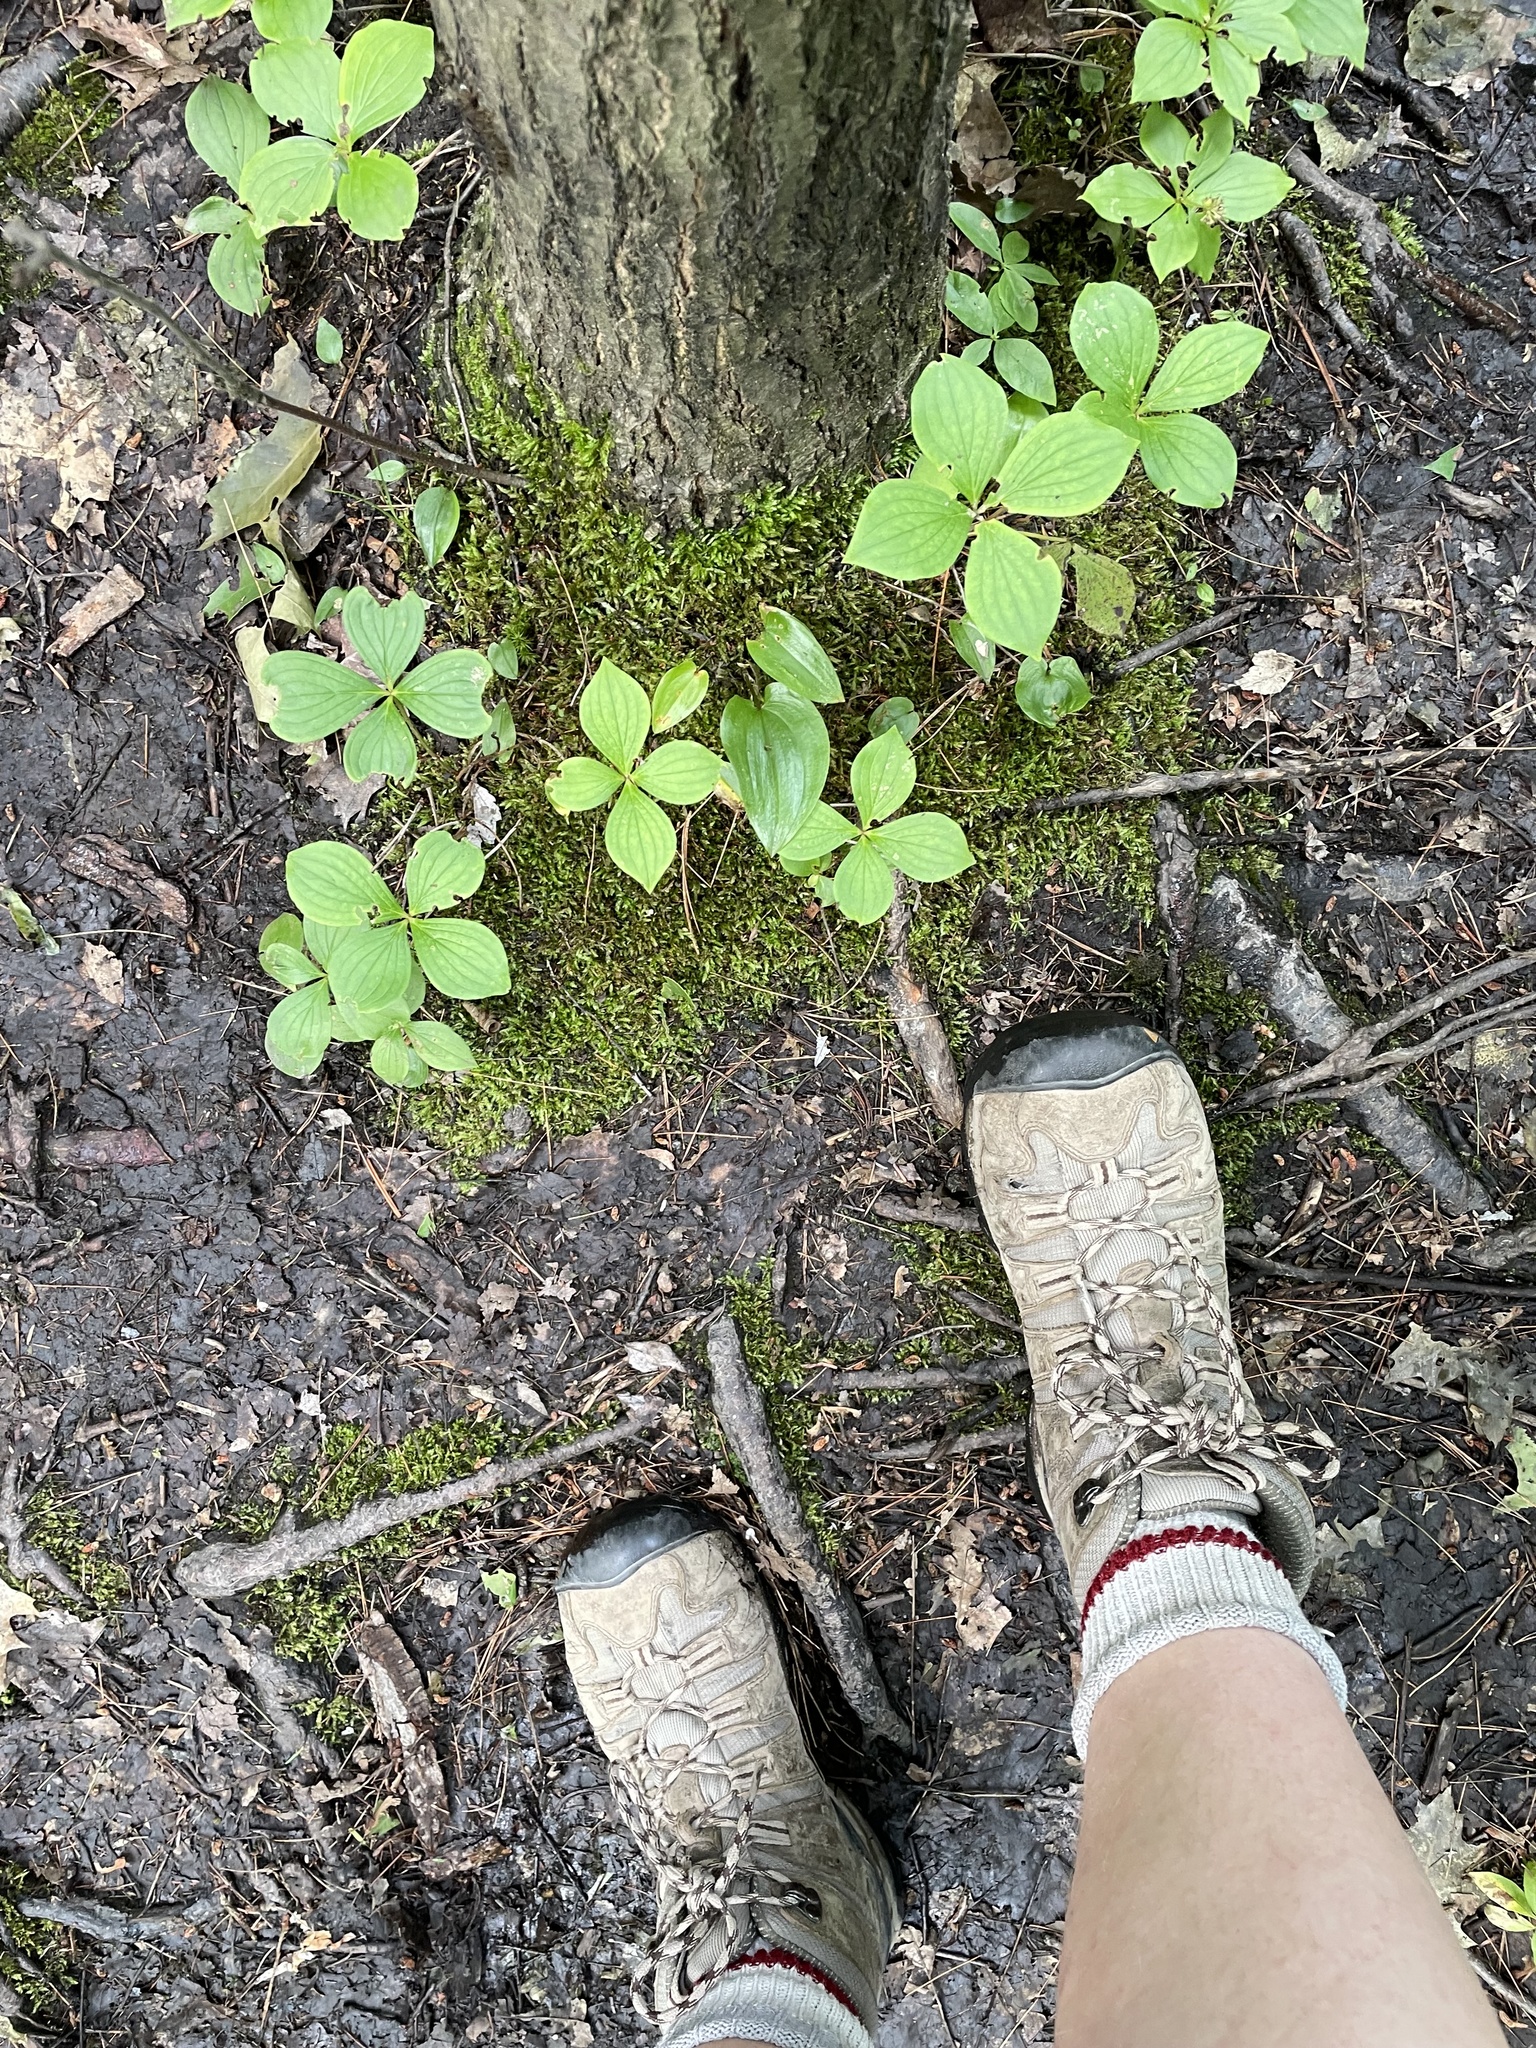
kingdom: Plantae
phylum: Tracheophyta
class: Magnoliopsida
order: Cornales
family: Cornaceae
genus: Cornus
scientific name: Cornus canadensis
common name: Creeping dogwood
